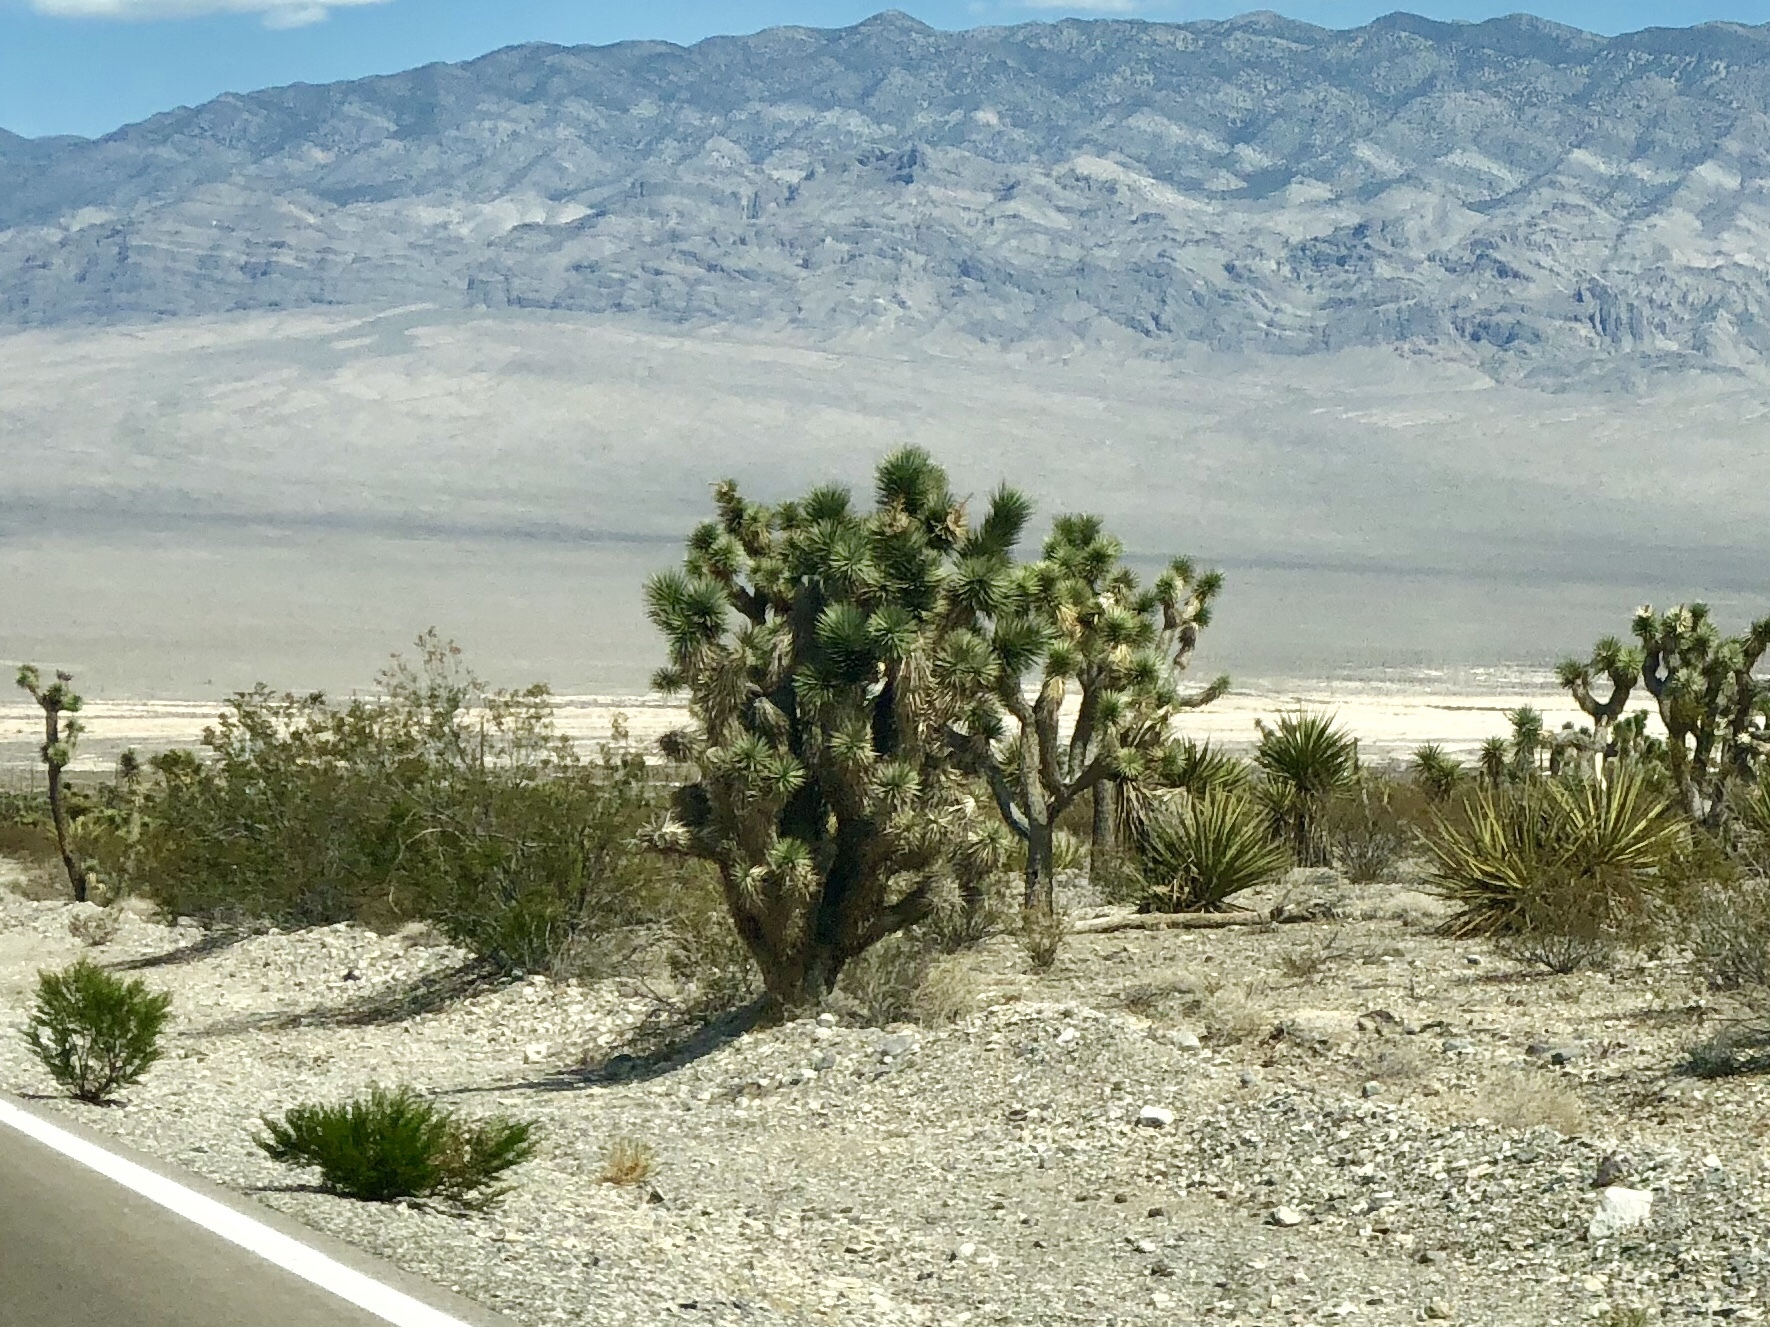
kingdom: Plantae
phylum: Tracheophyta
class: Liliopsida
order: Asparagales
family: Asparagaceae
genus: Yucca
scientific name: Yucca brevifolia
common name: Joshua tree
